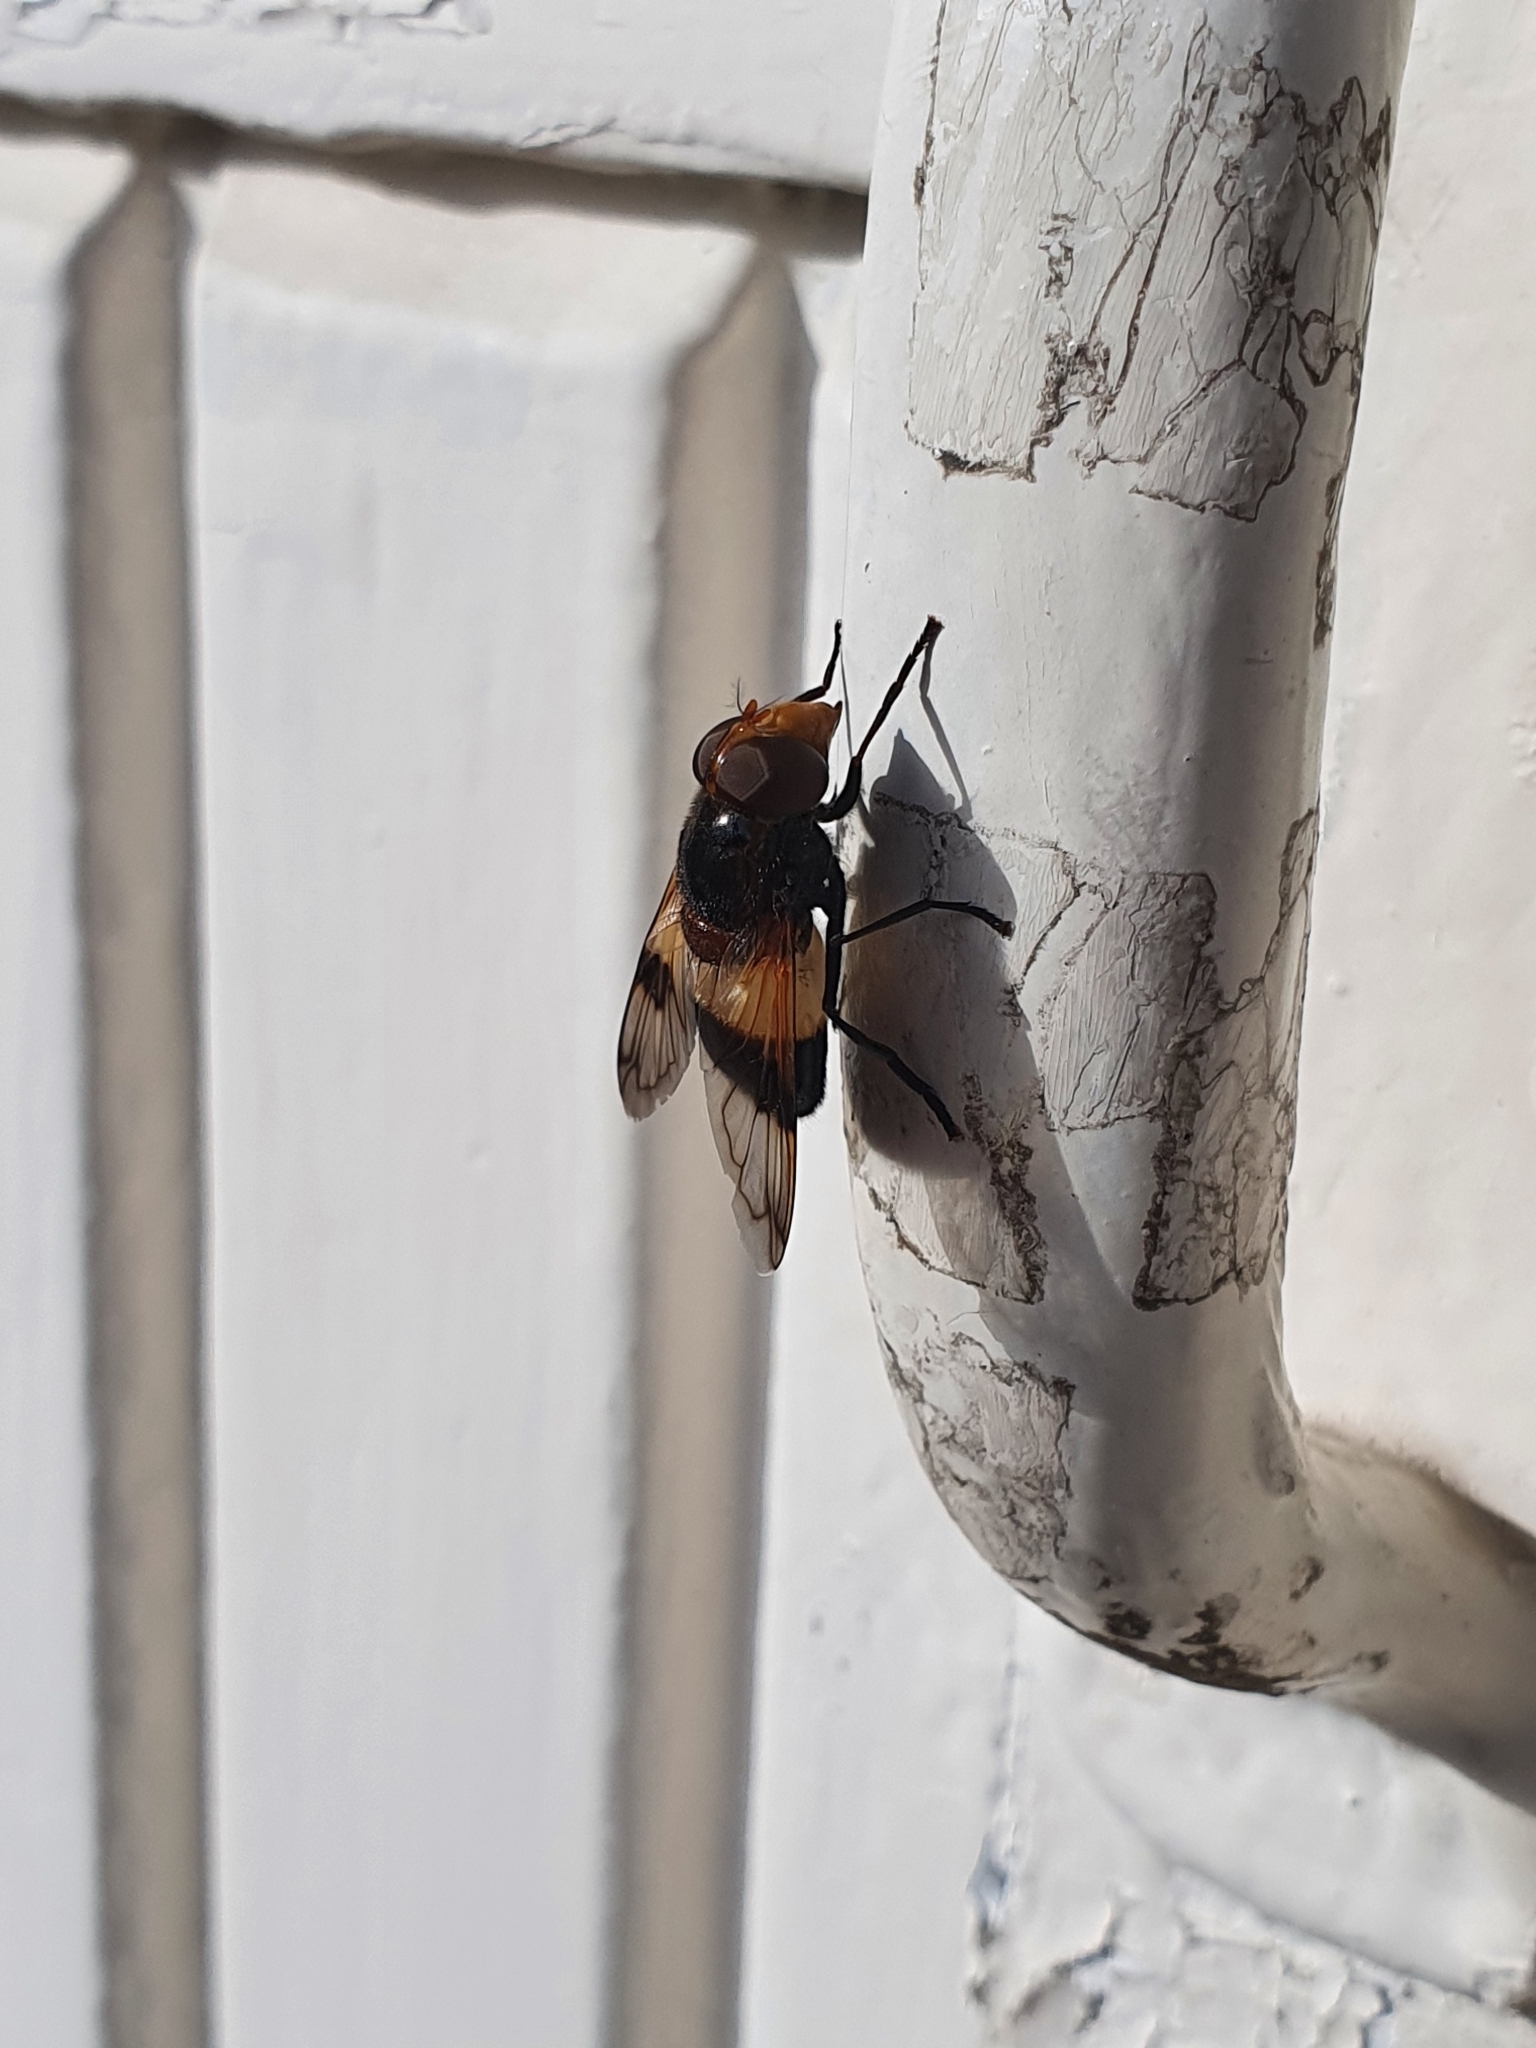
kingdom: Animalia
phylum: Arthropoda
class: Insecta
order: Diptera
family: Syrphidae
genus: Volucella
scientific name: Volucella pellucens
